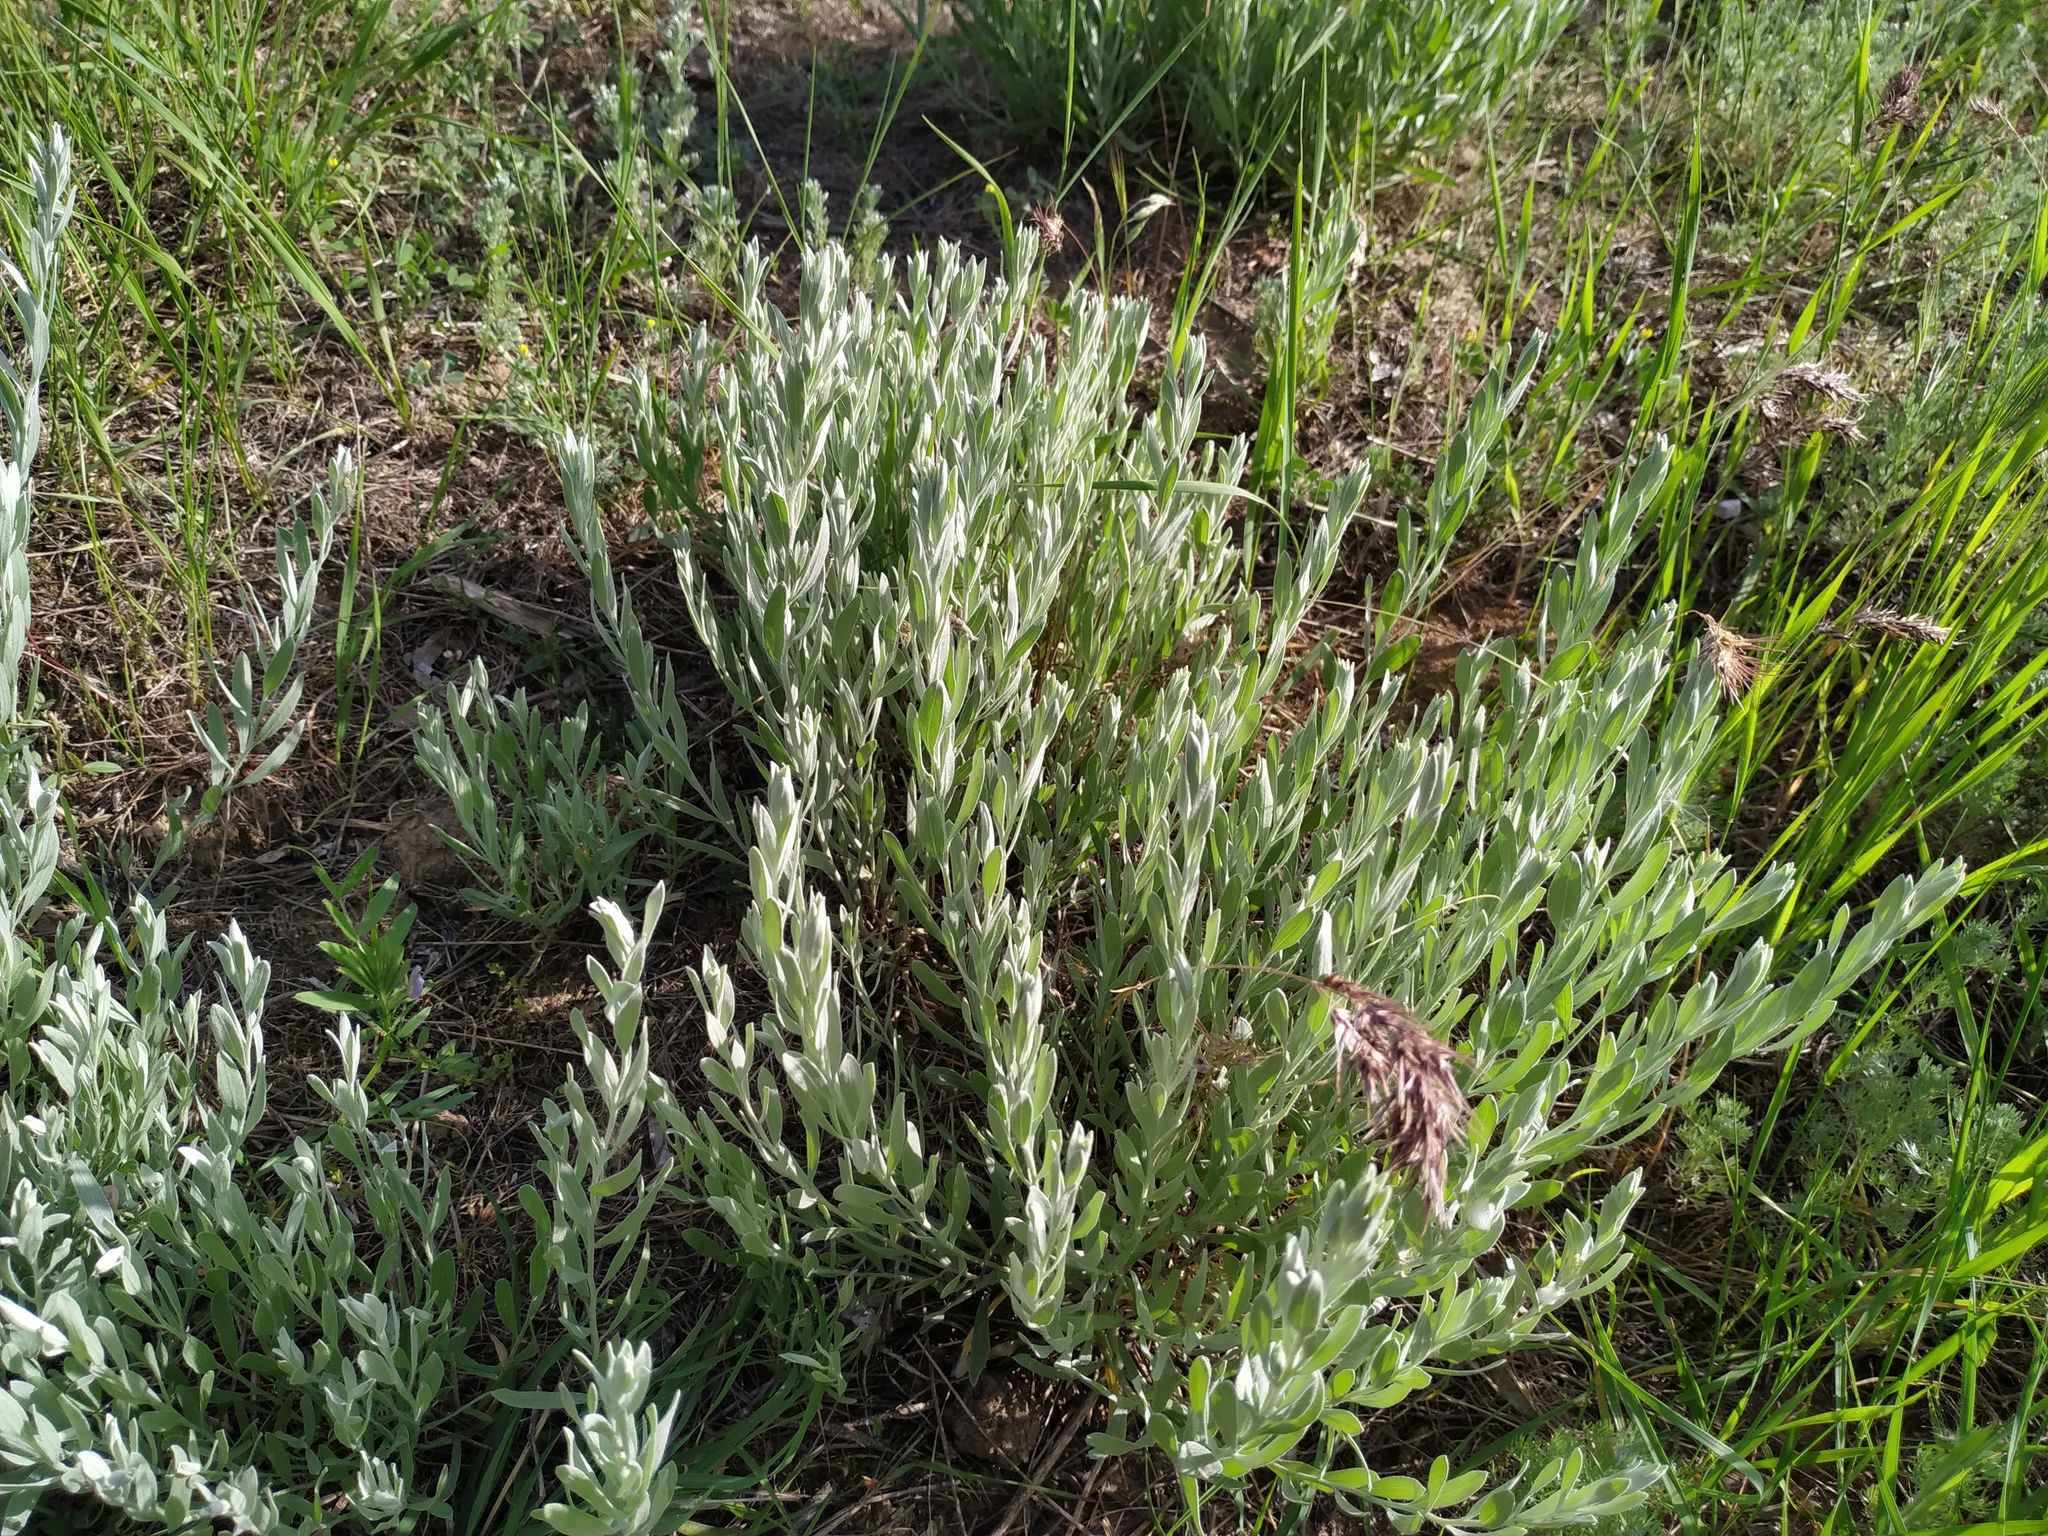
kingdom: Plantae
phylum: Tracheophyta
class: Magnoliopsida
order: Asterales
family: Asteraceae
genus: Galatella
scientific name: Galatella villosa
